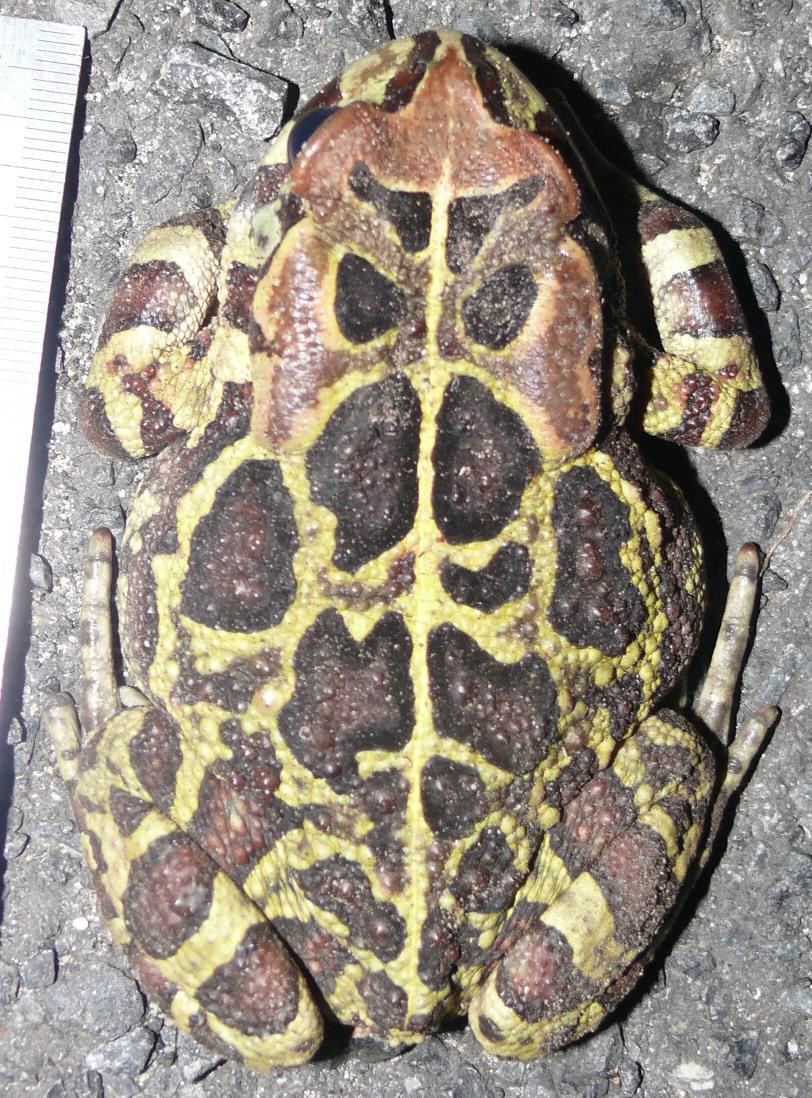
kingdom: Animalia
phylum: Chordata
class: Amphibia
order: Anura
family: Bufonidae
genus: Sclerophrys
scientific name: Sclerophrys pantherina
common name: Panther toad
